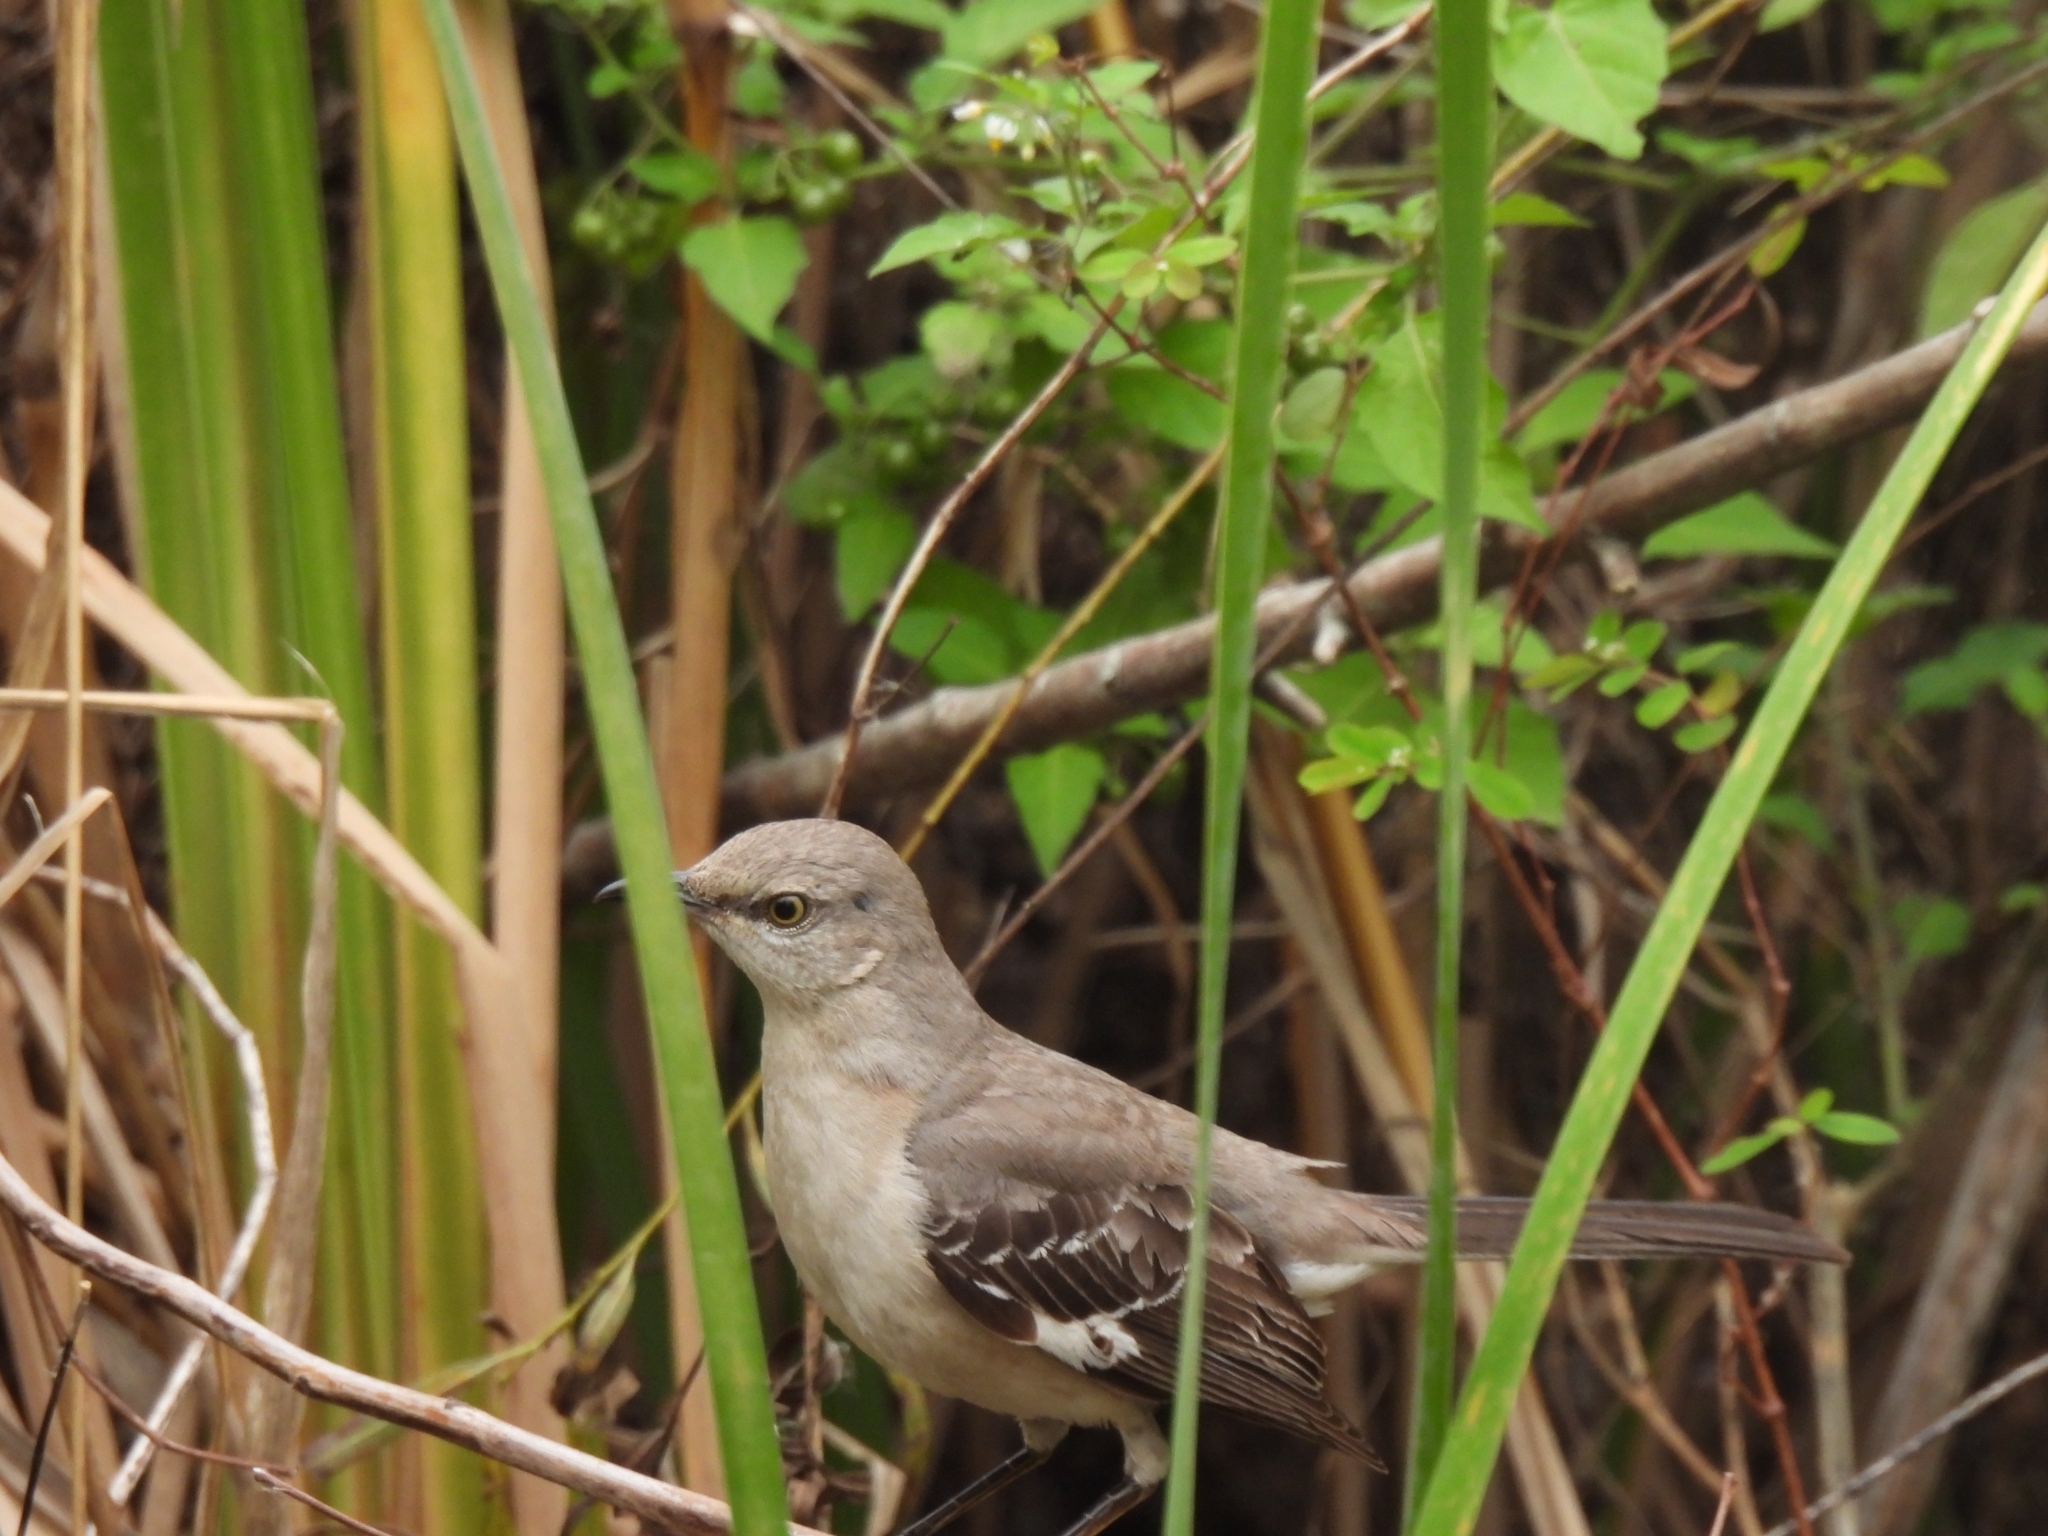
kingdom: Animalia
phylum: Chordata
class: Aves
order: Passeriformes
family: Mimidae
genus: Mimus
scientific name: Mimus polyglottos
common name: Northern mockingbird
